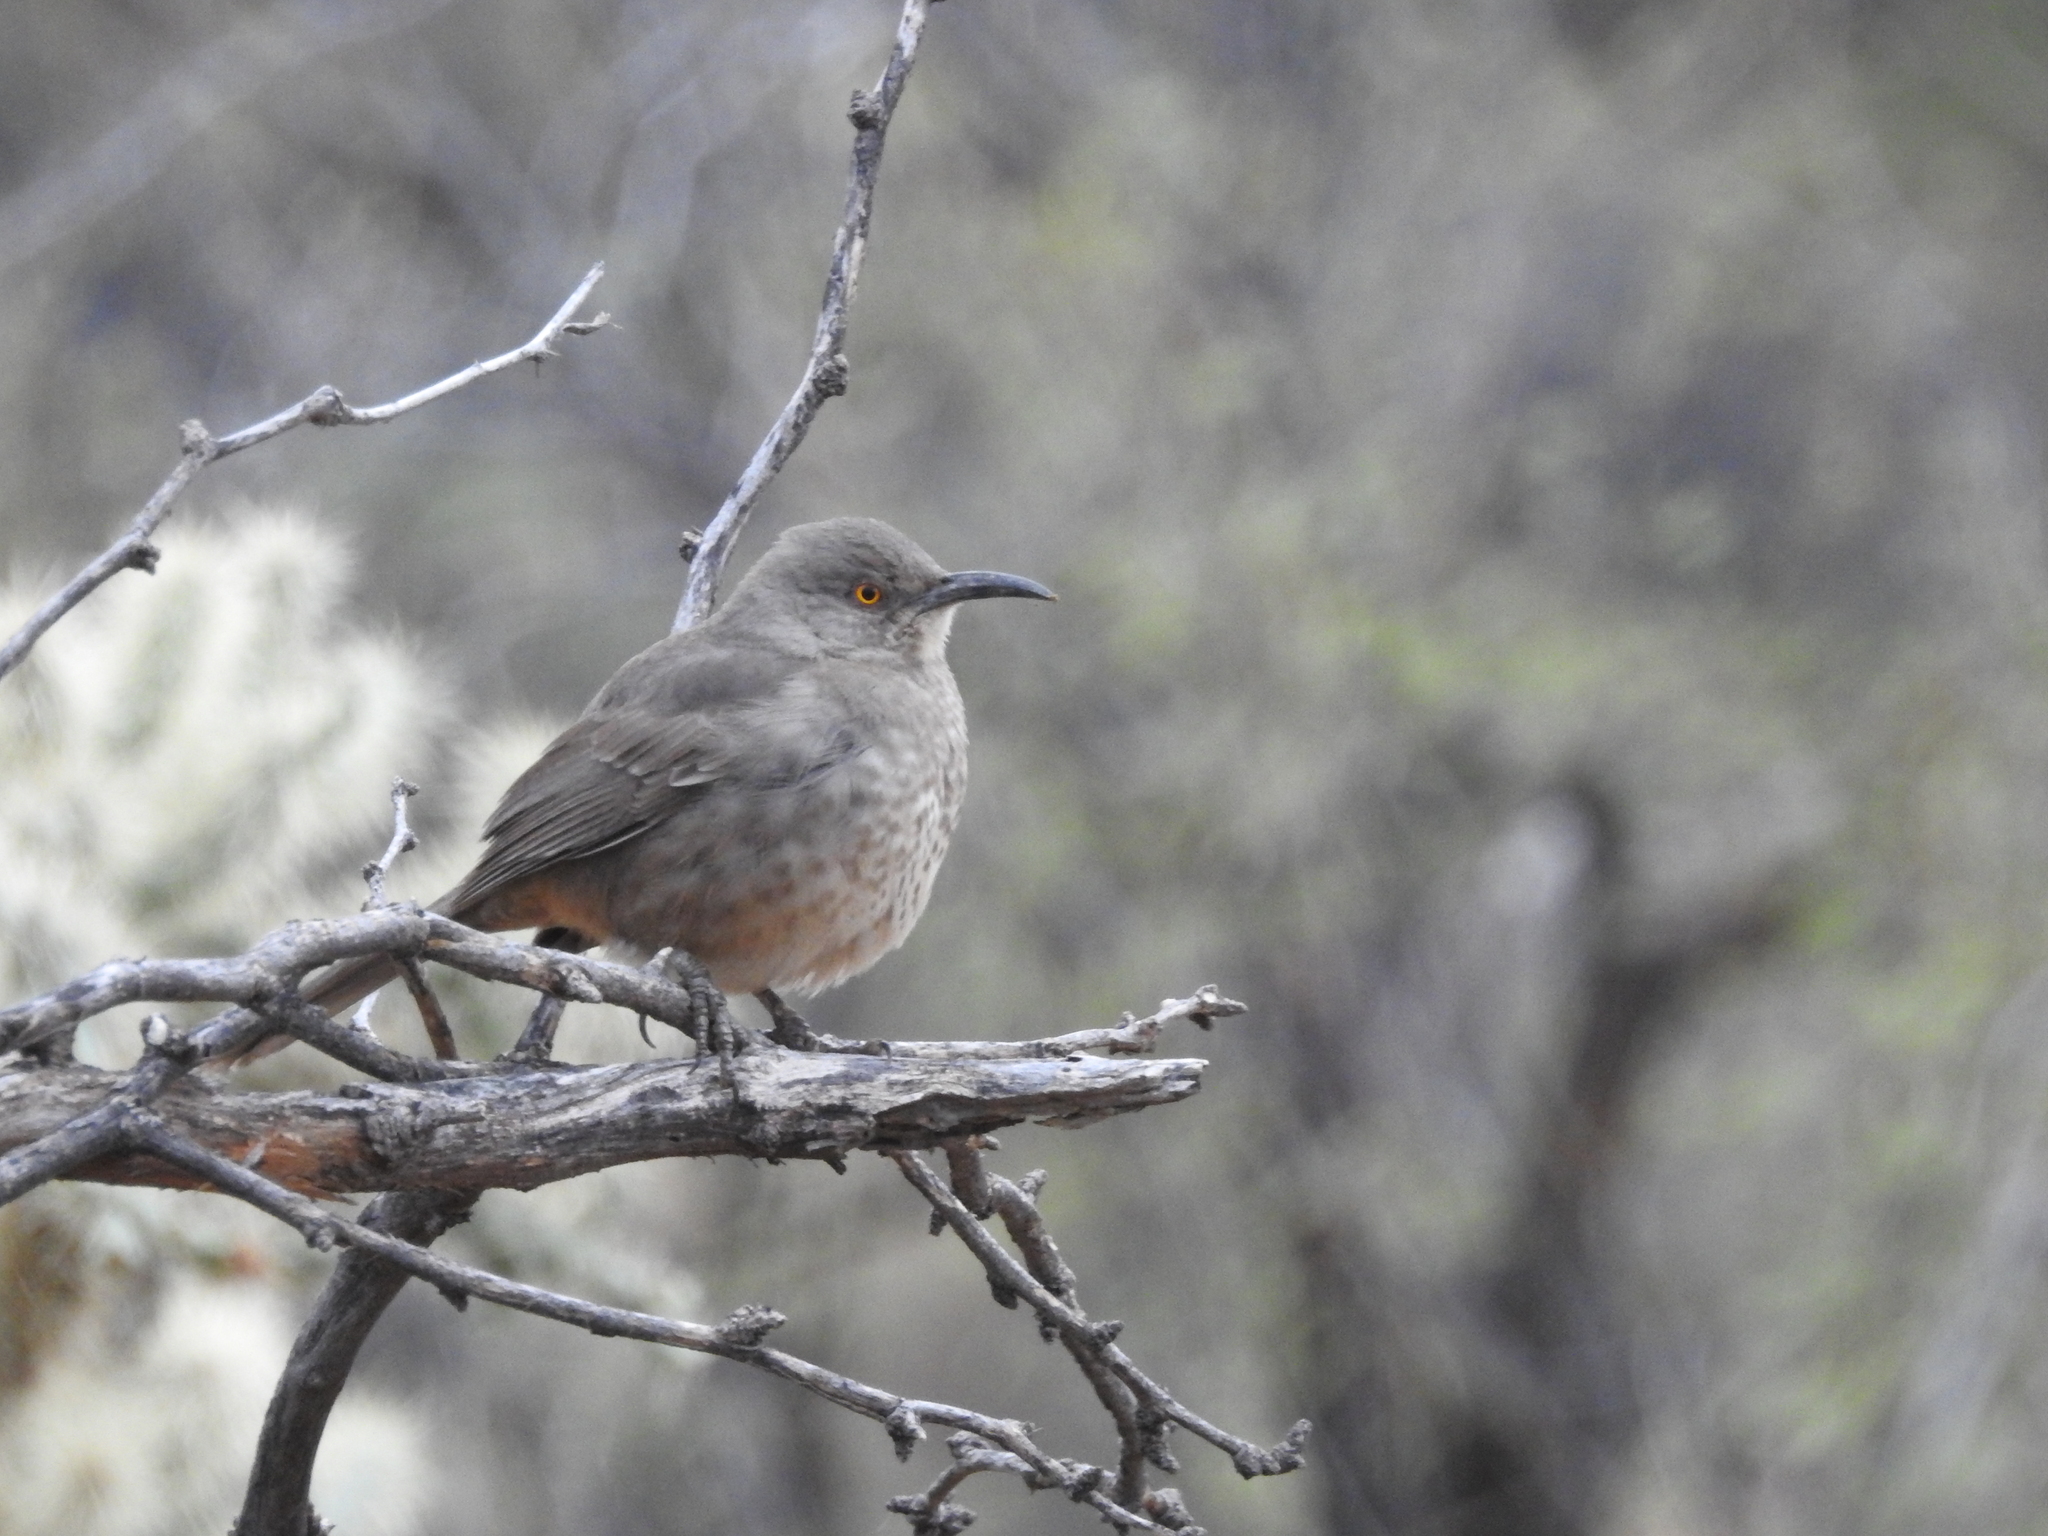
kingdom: Animalia
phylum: Chordata
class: Aves
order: Passeriformes
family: Mimidae
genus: Toxostoma
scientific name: Toxostoma curvirostre
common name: Curve-billed thrasher
